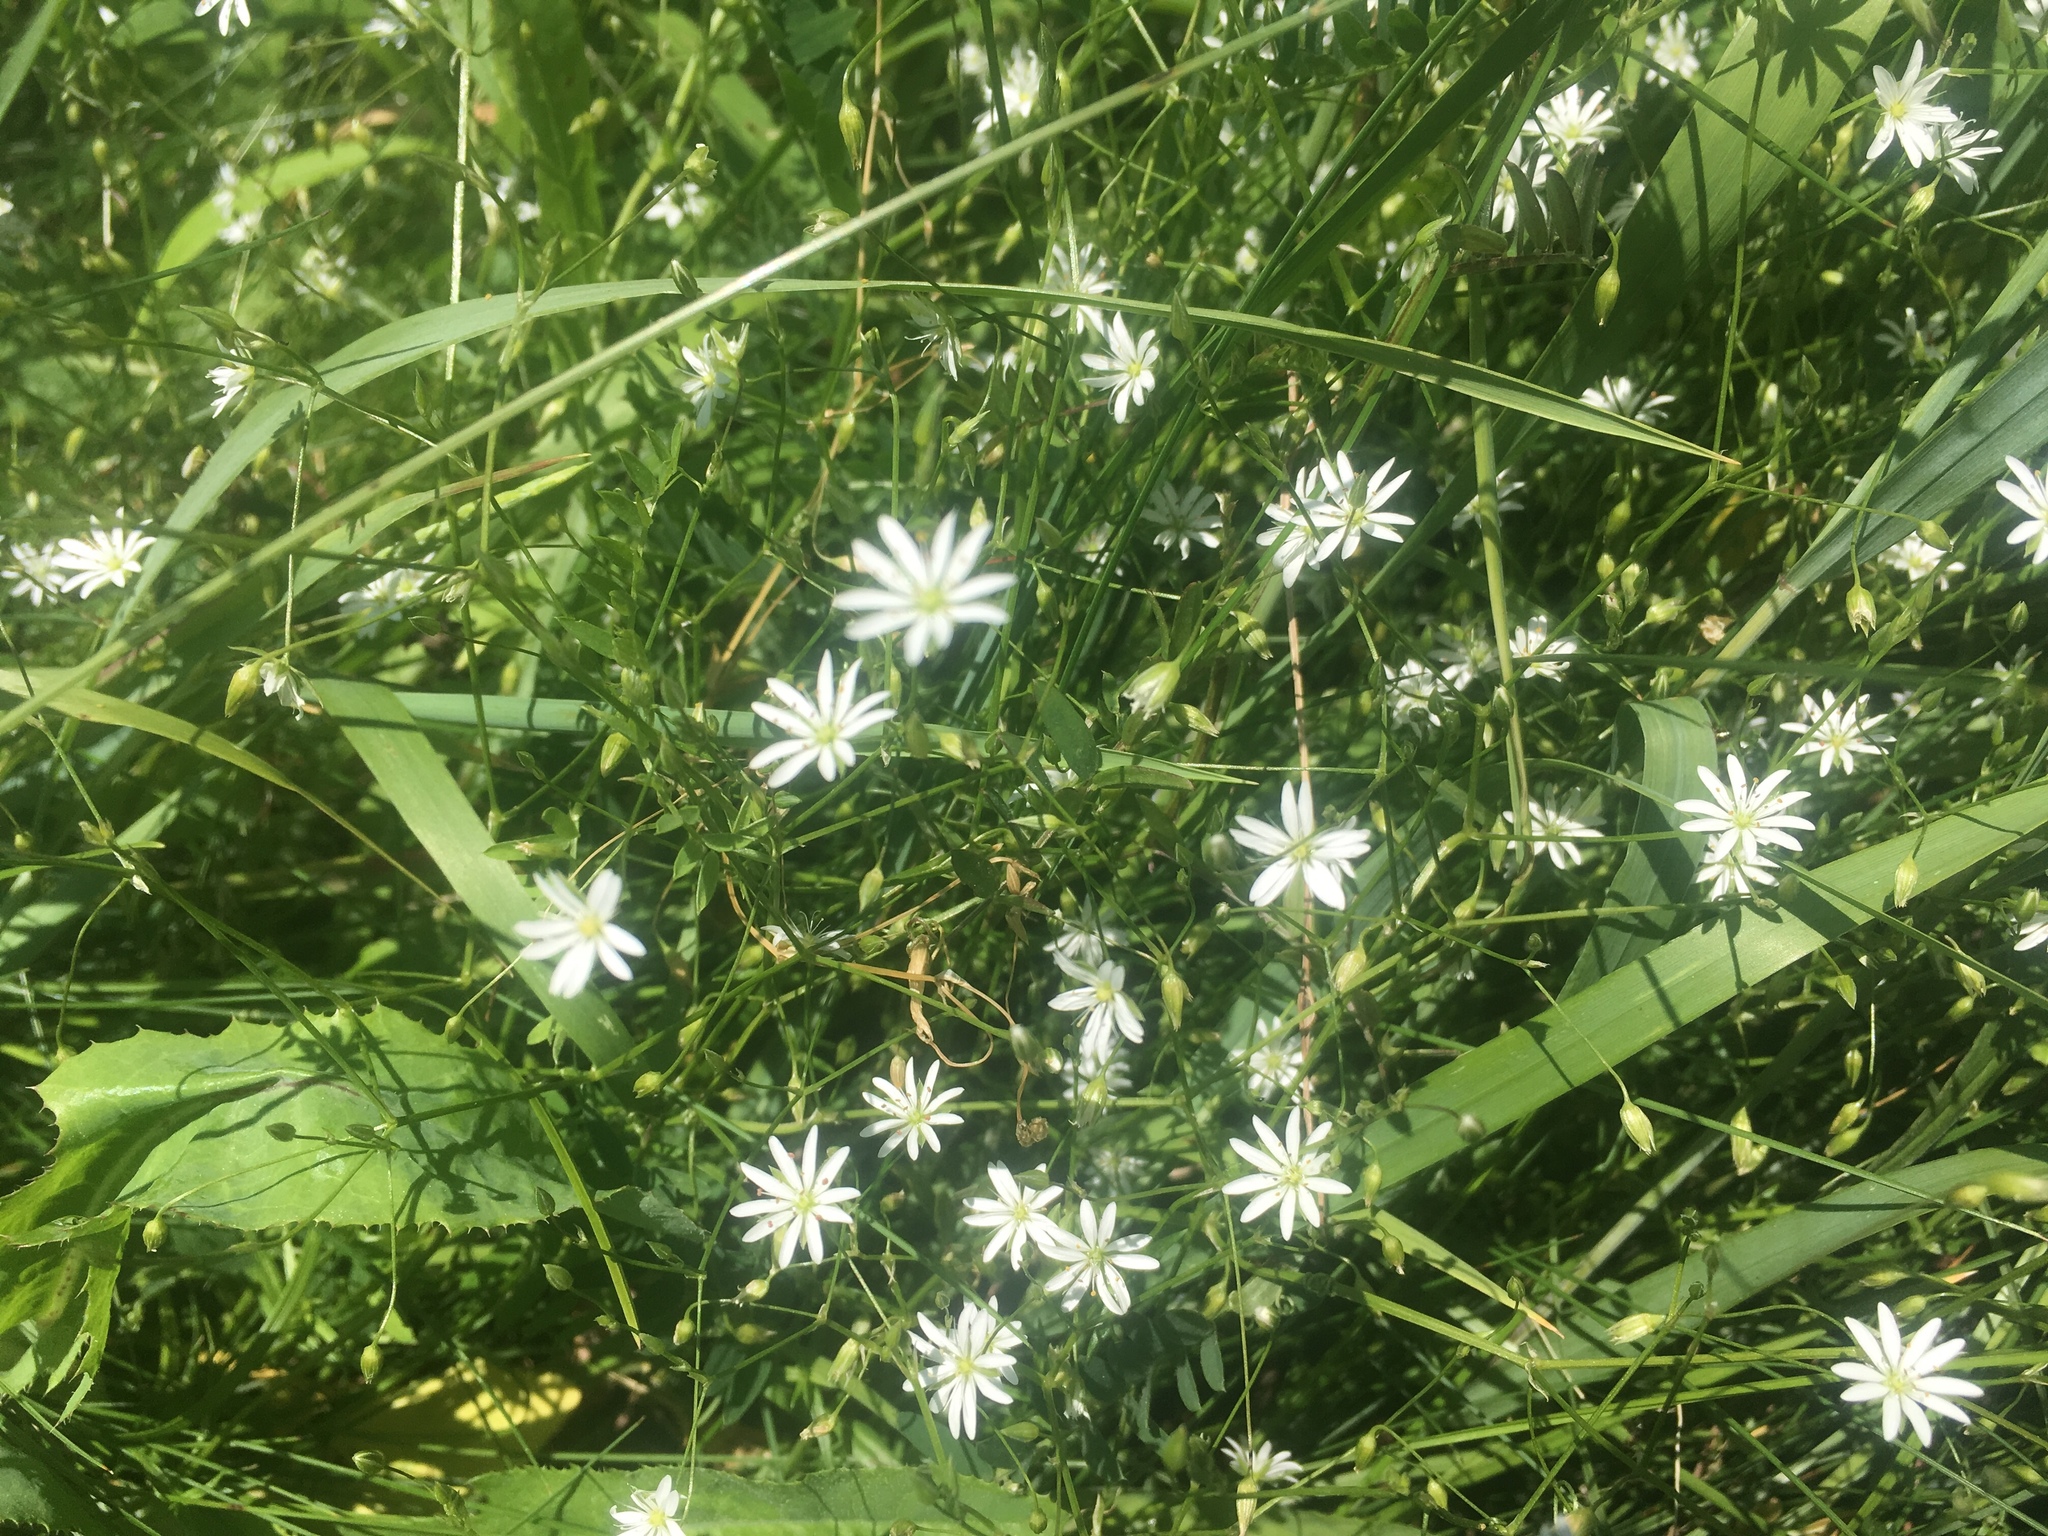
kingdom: Plantae
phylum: Tracheophyta
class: Magnoliopsida
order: Caryophyllales
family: Caryophyllaceae
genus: Stellaria
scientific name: Stellaria graminea
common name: Grass-like starwort
